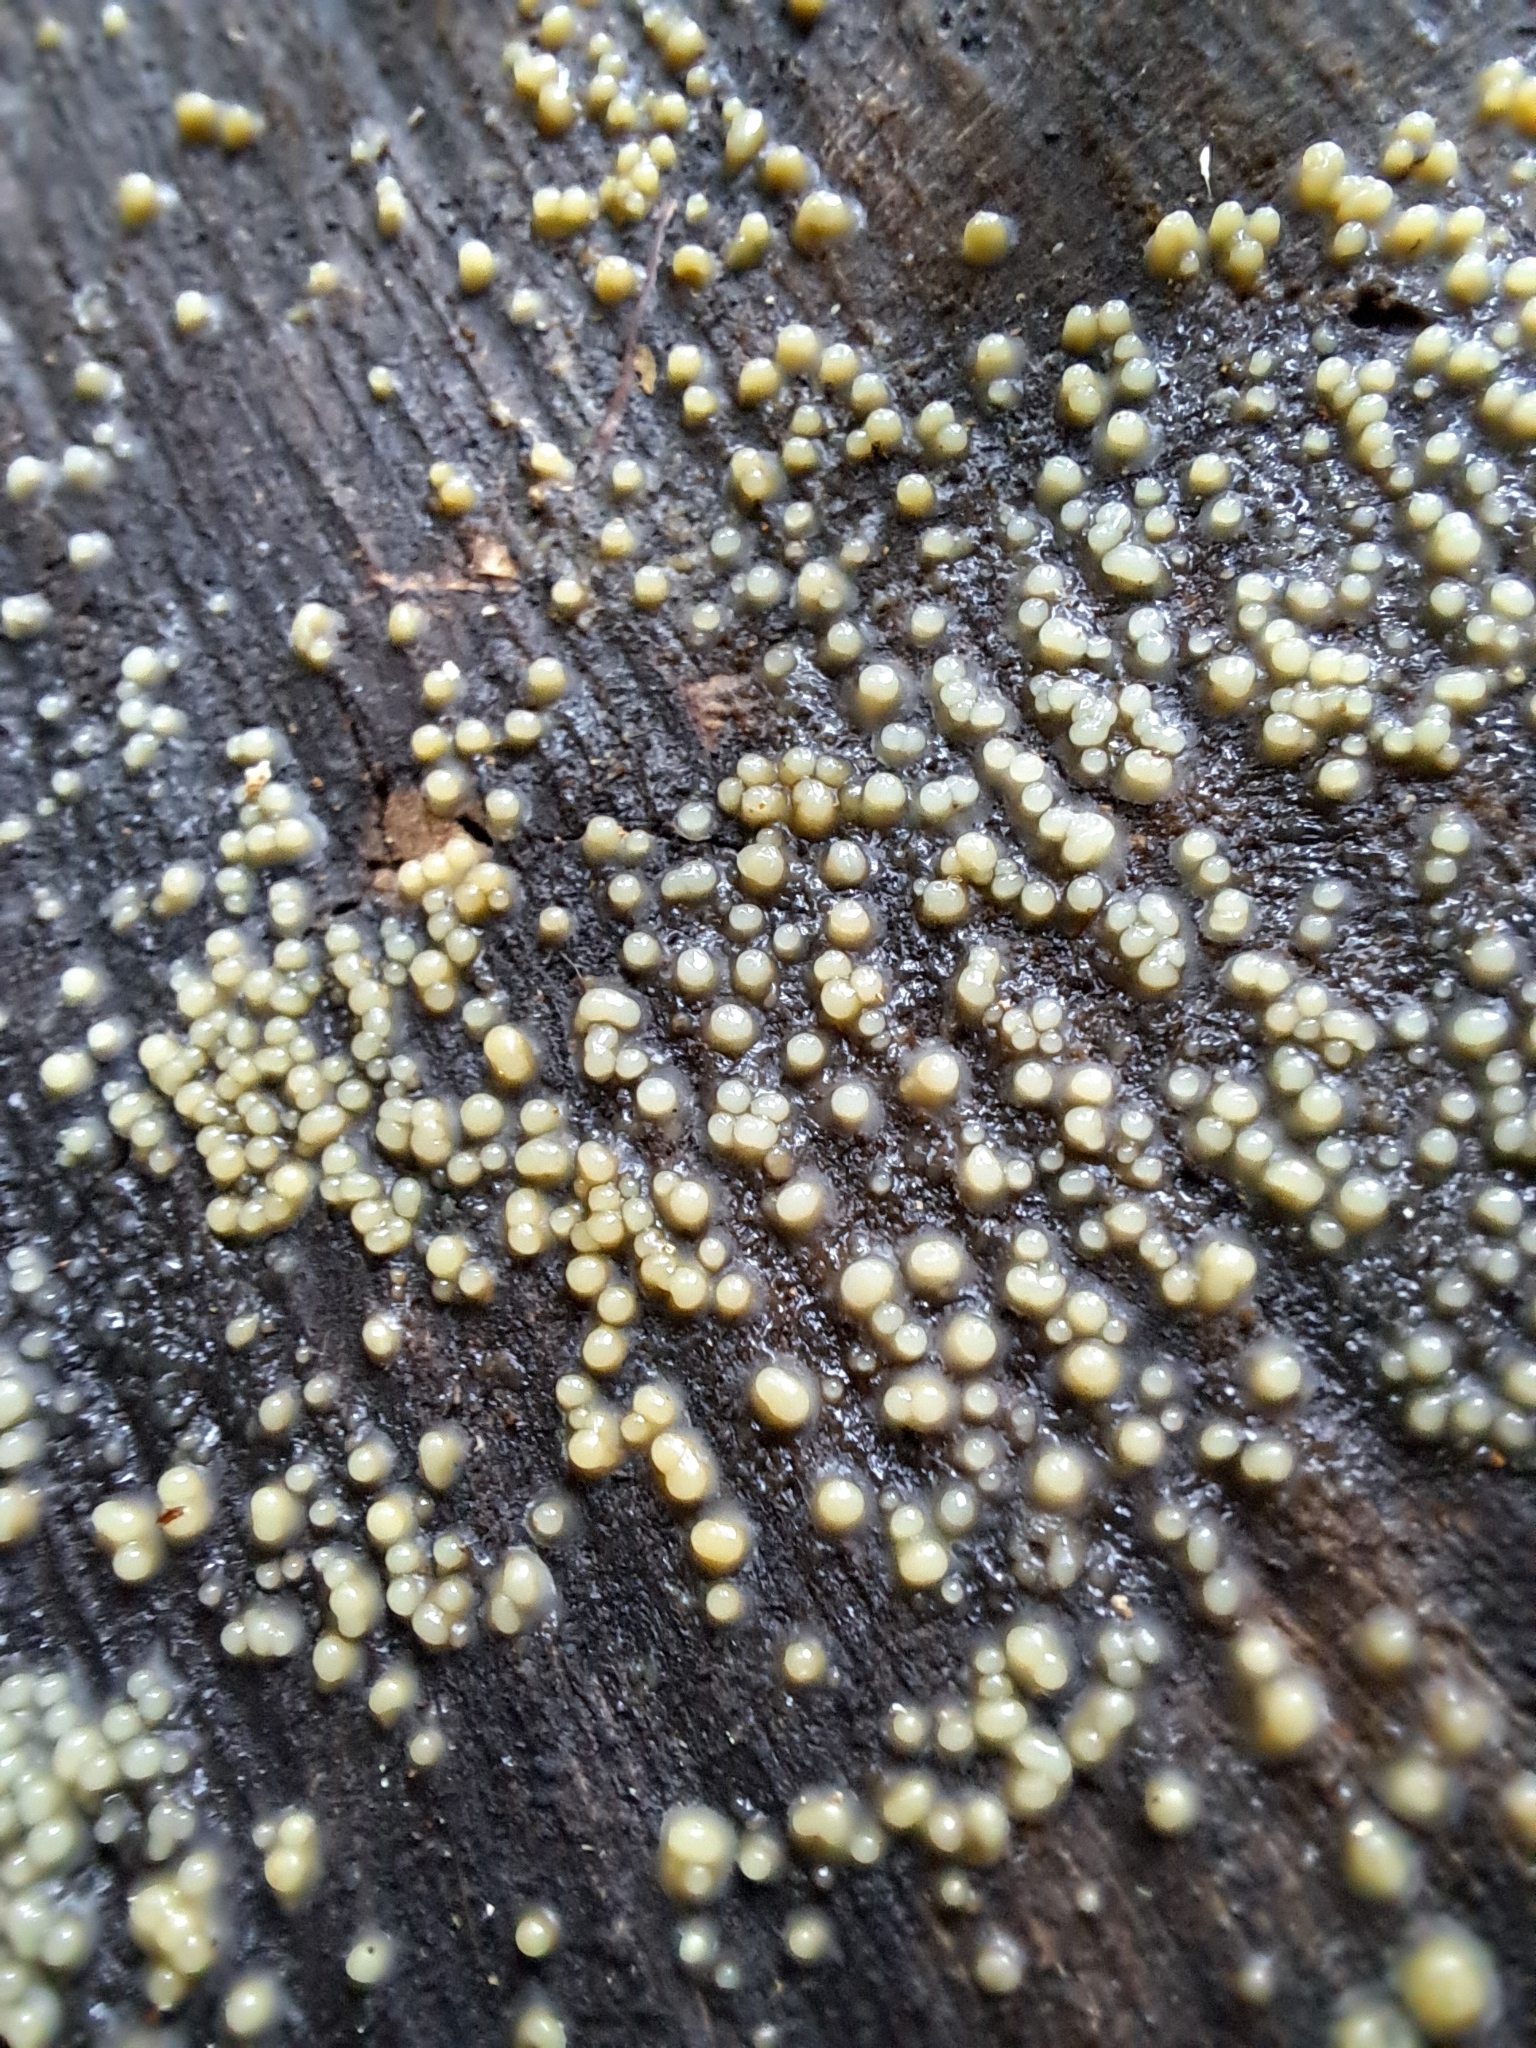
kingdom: Fungi
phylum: Basidiomycota
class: Atractiellomycetes
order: Atractiellales
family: Phleogenaceae
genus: Helicogloea
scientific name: Helicogloea compressa
